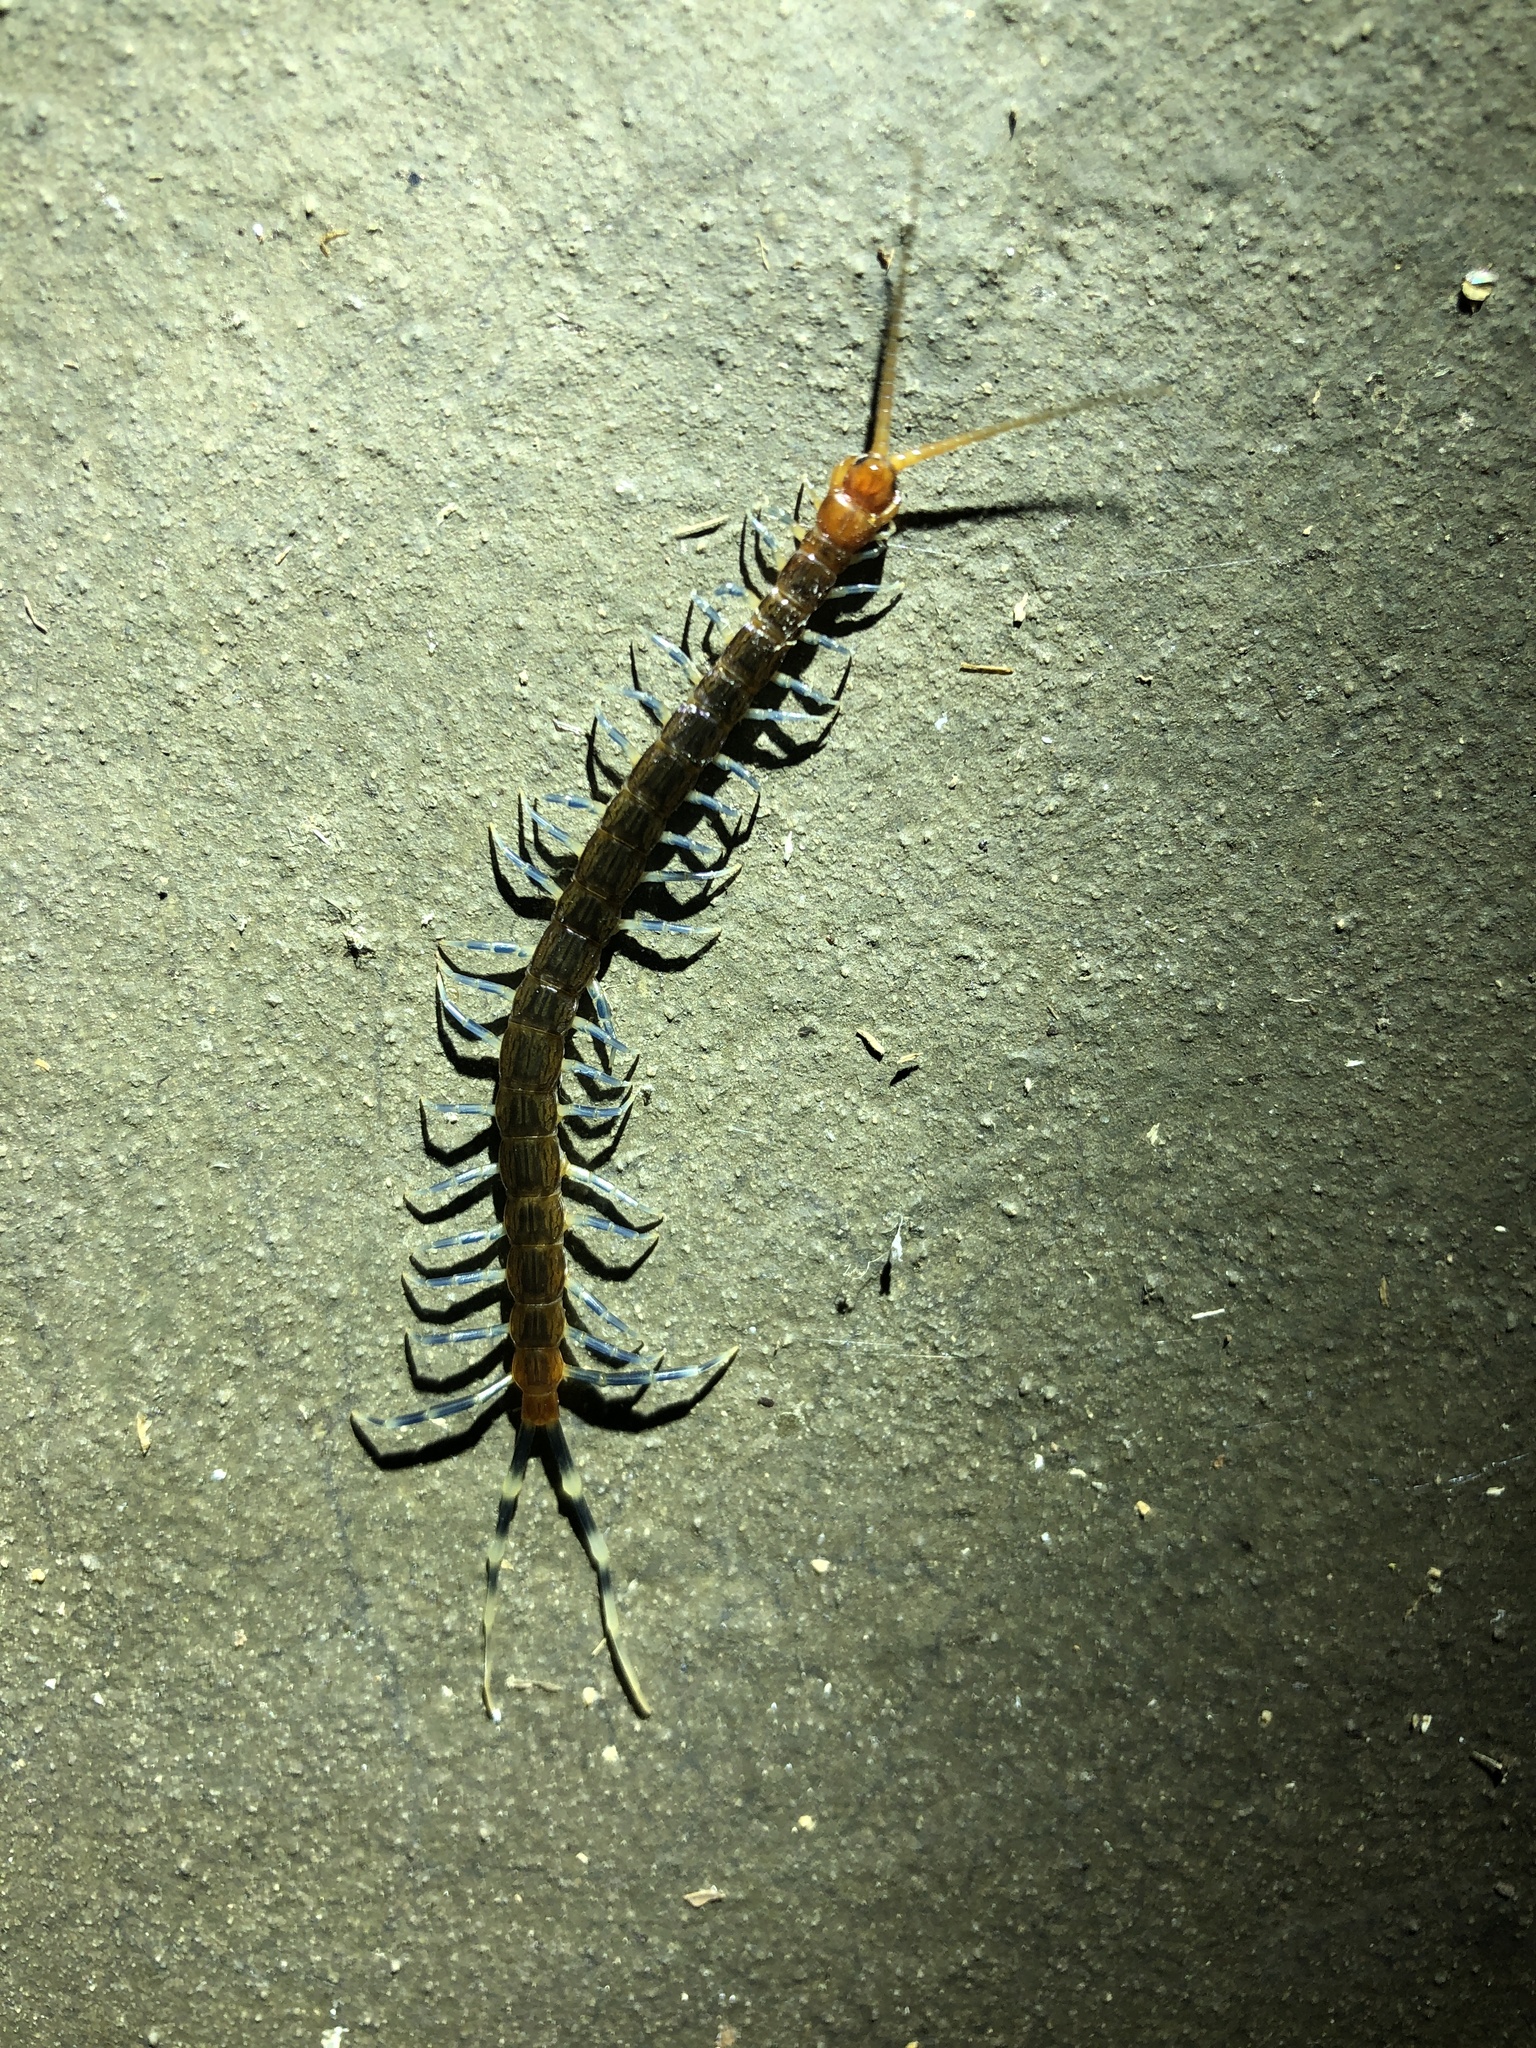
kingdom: Animalia
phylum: Arthropoda
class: Chilopoda
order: Scolopendromorpha
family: Scolopendridae
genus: Otostigmus
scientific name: Otostigmus scaber
